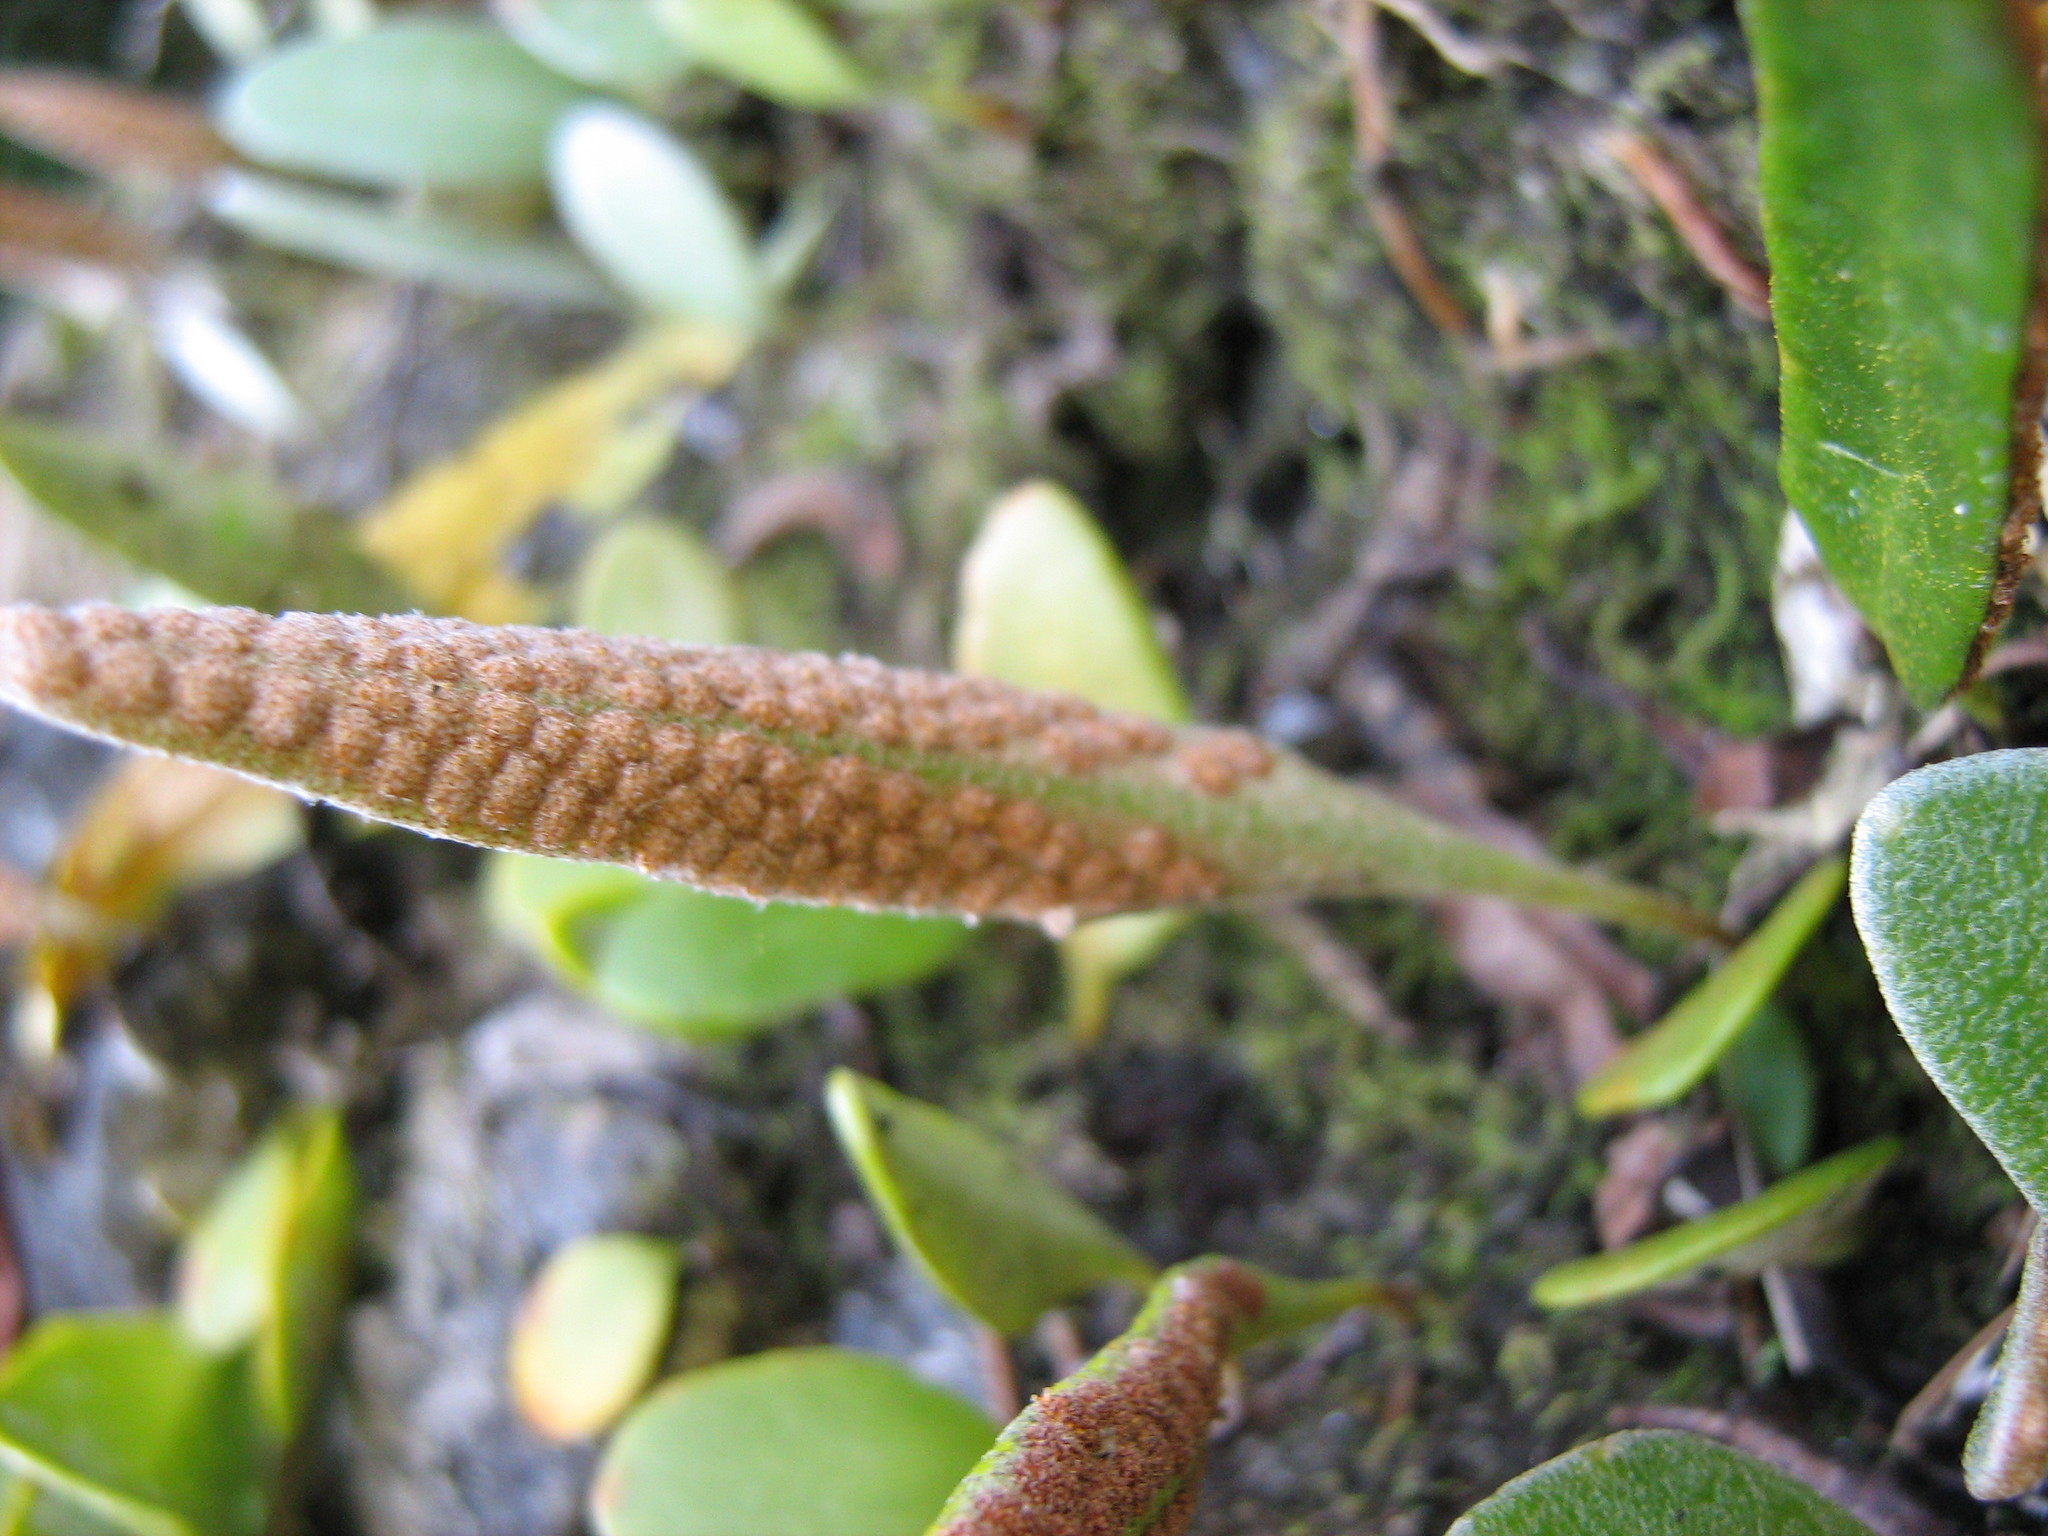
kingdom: Plantae
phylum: Tracheophyta
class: Polypodiopsida
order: Polypodiales
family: Polypodiaceae
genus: Pyrrosia
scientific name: Pyrrosia eleagnifolia
